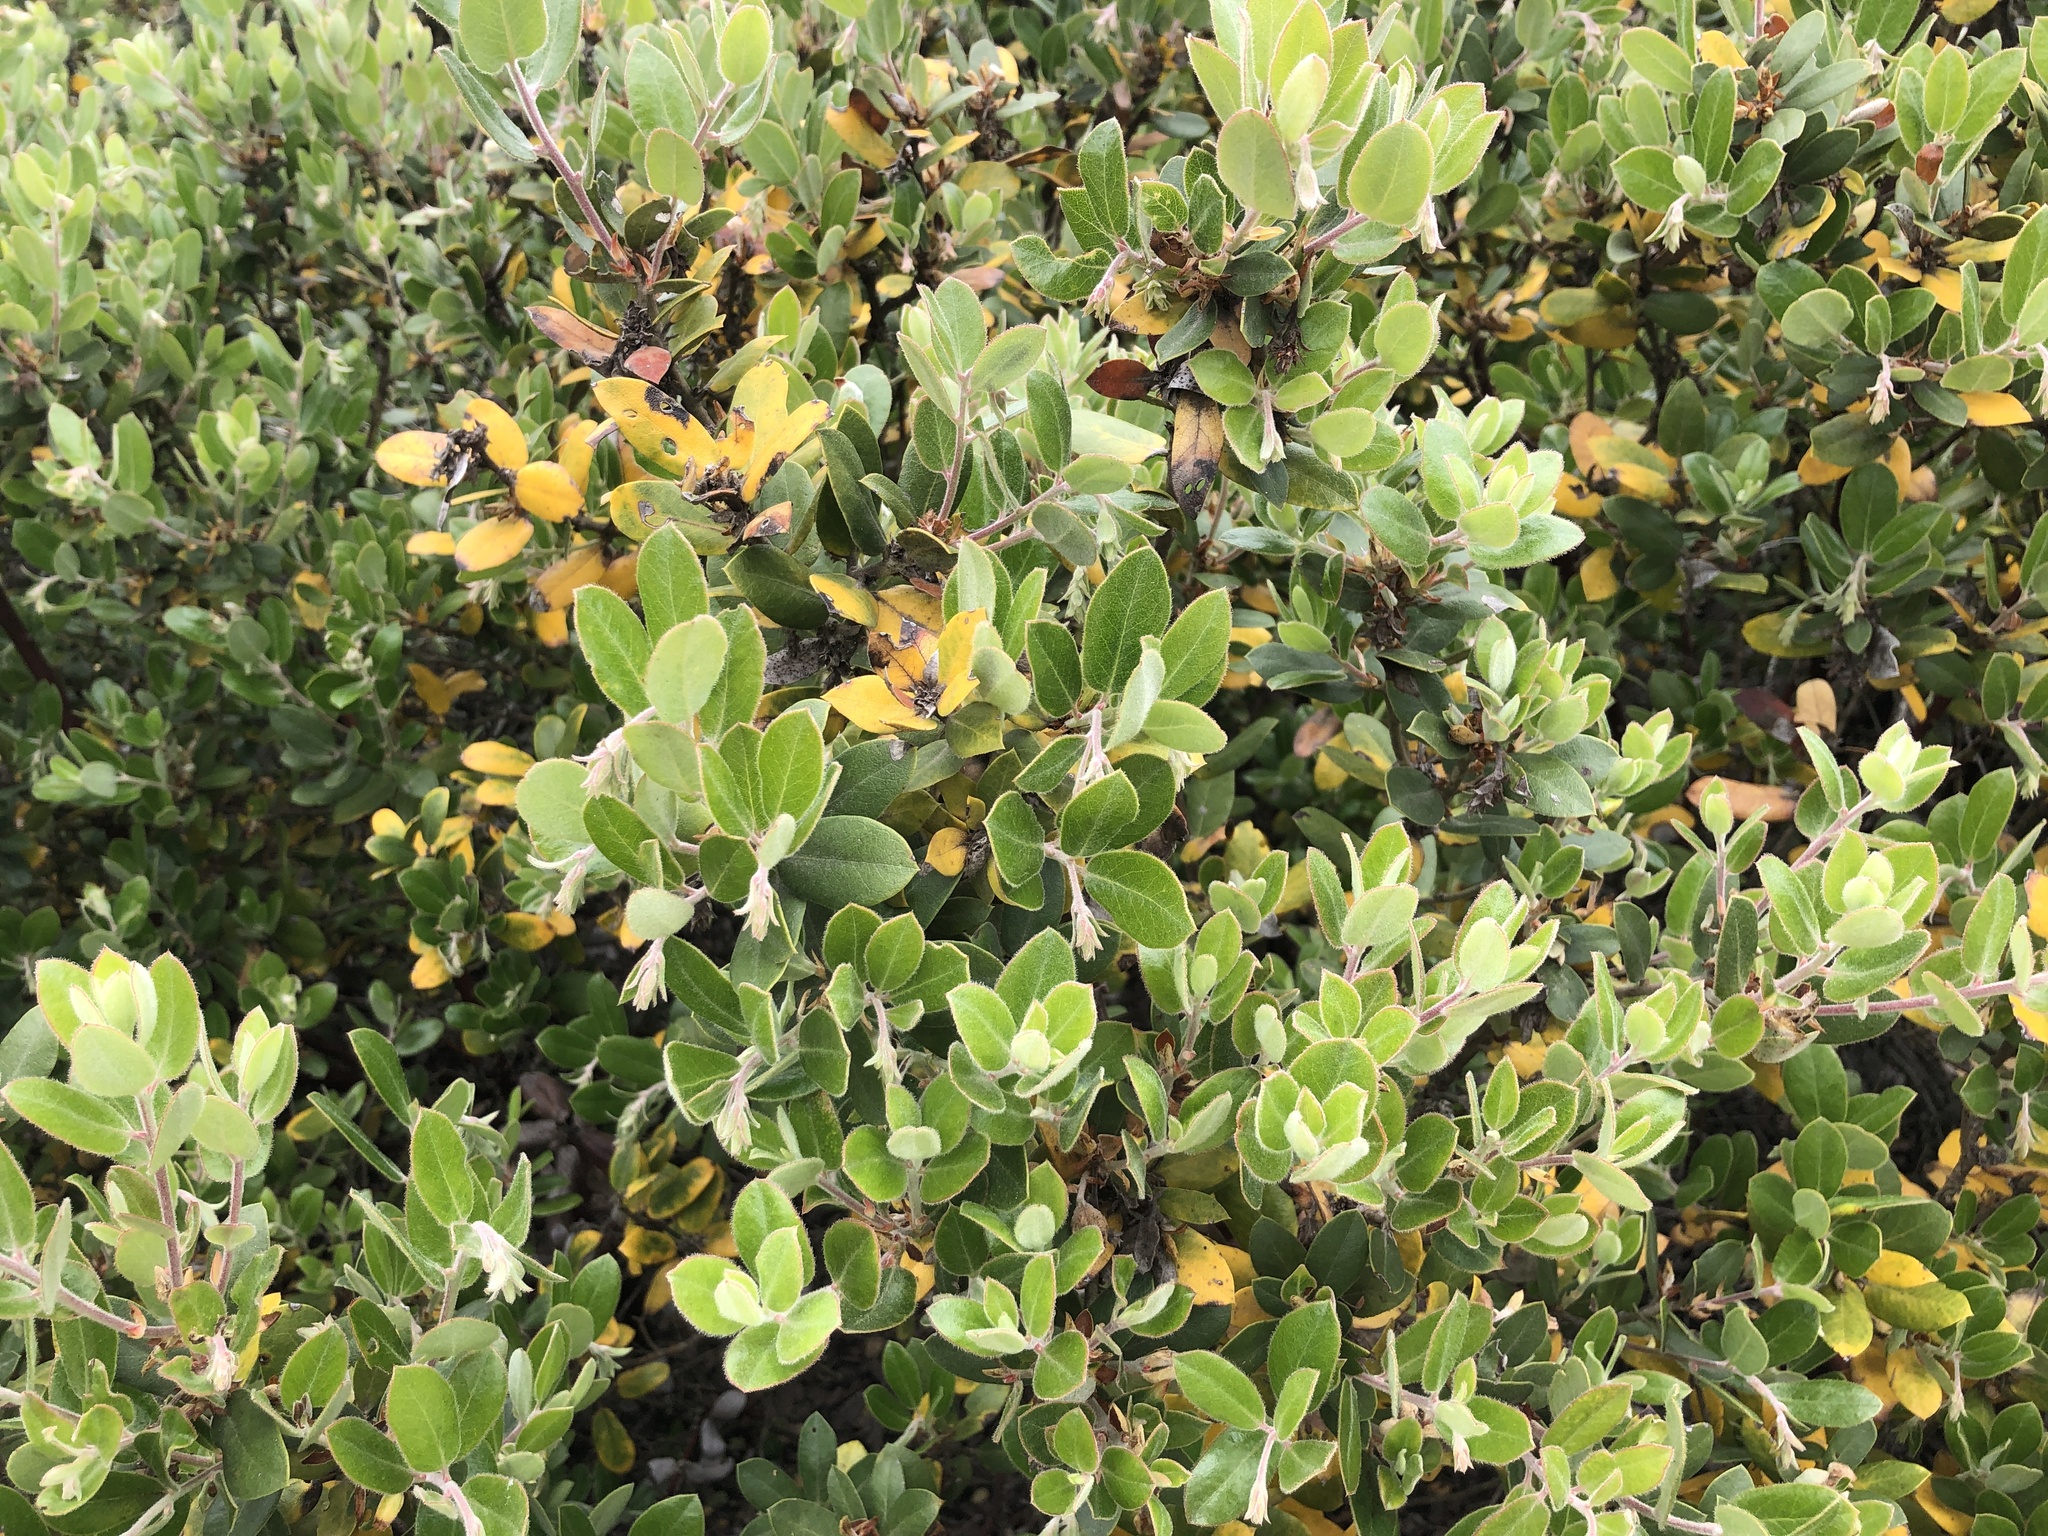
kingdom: Plantae
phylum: Tracheophyta
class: Magnoliopsida
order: Ericales
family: Ericaceae
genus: Arctostaphylos
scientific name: Arctostaphylos tomentosa
